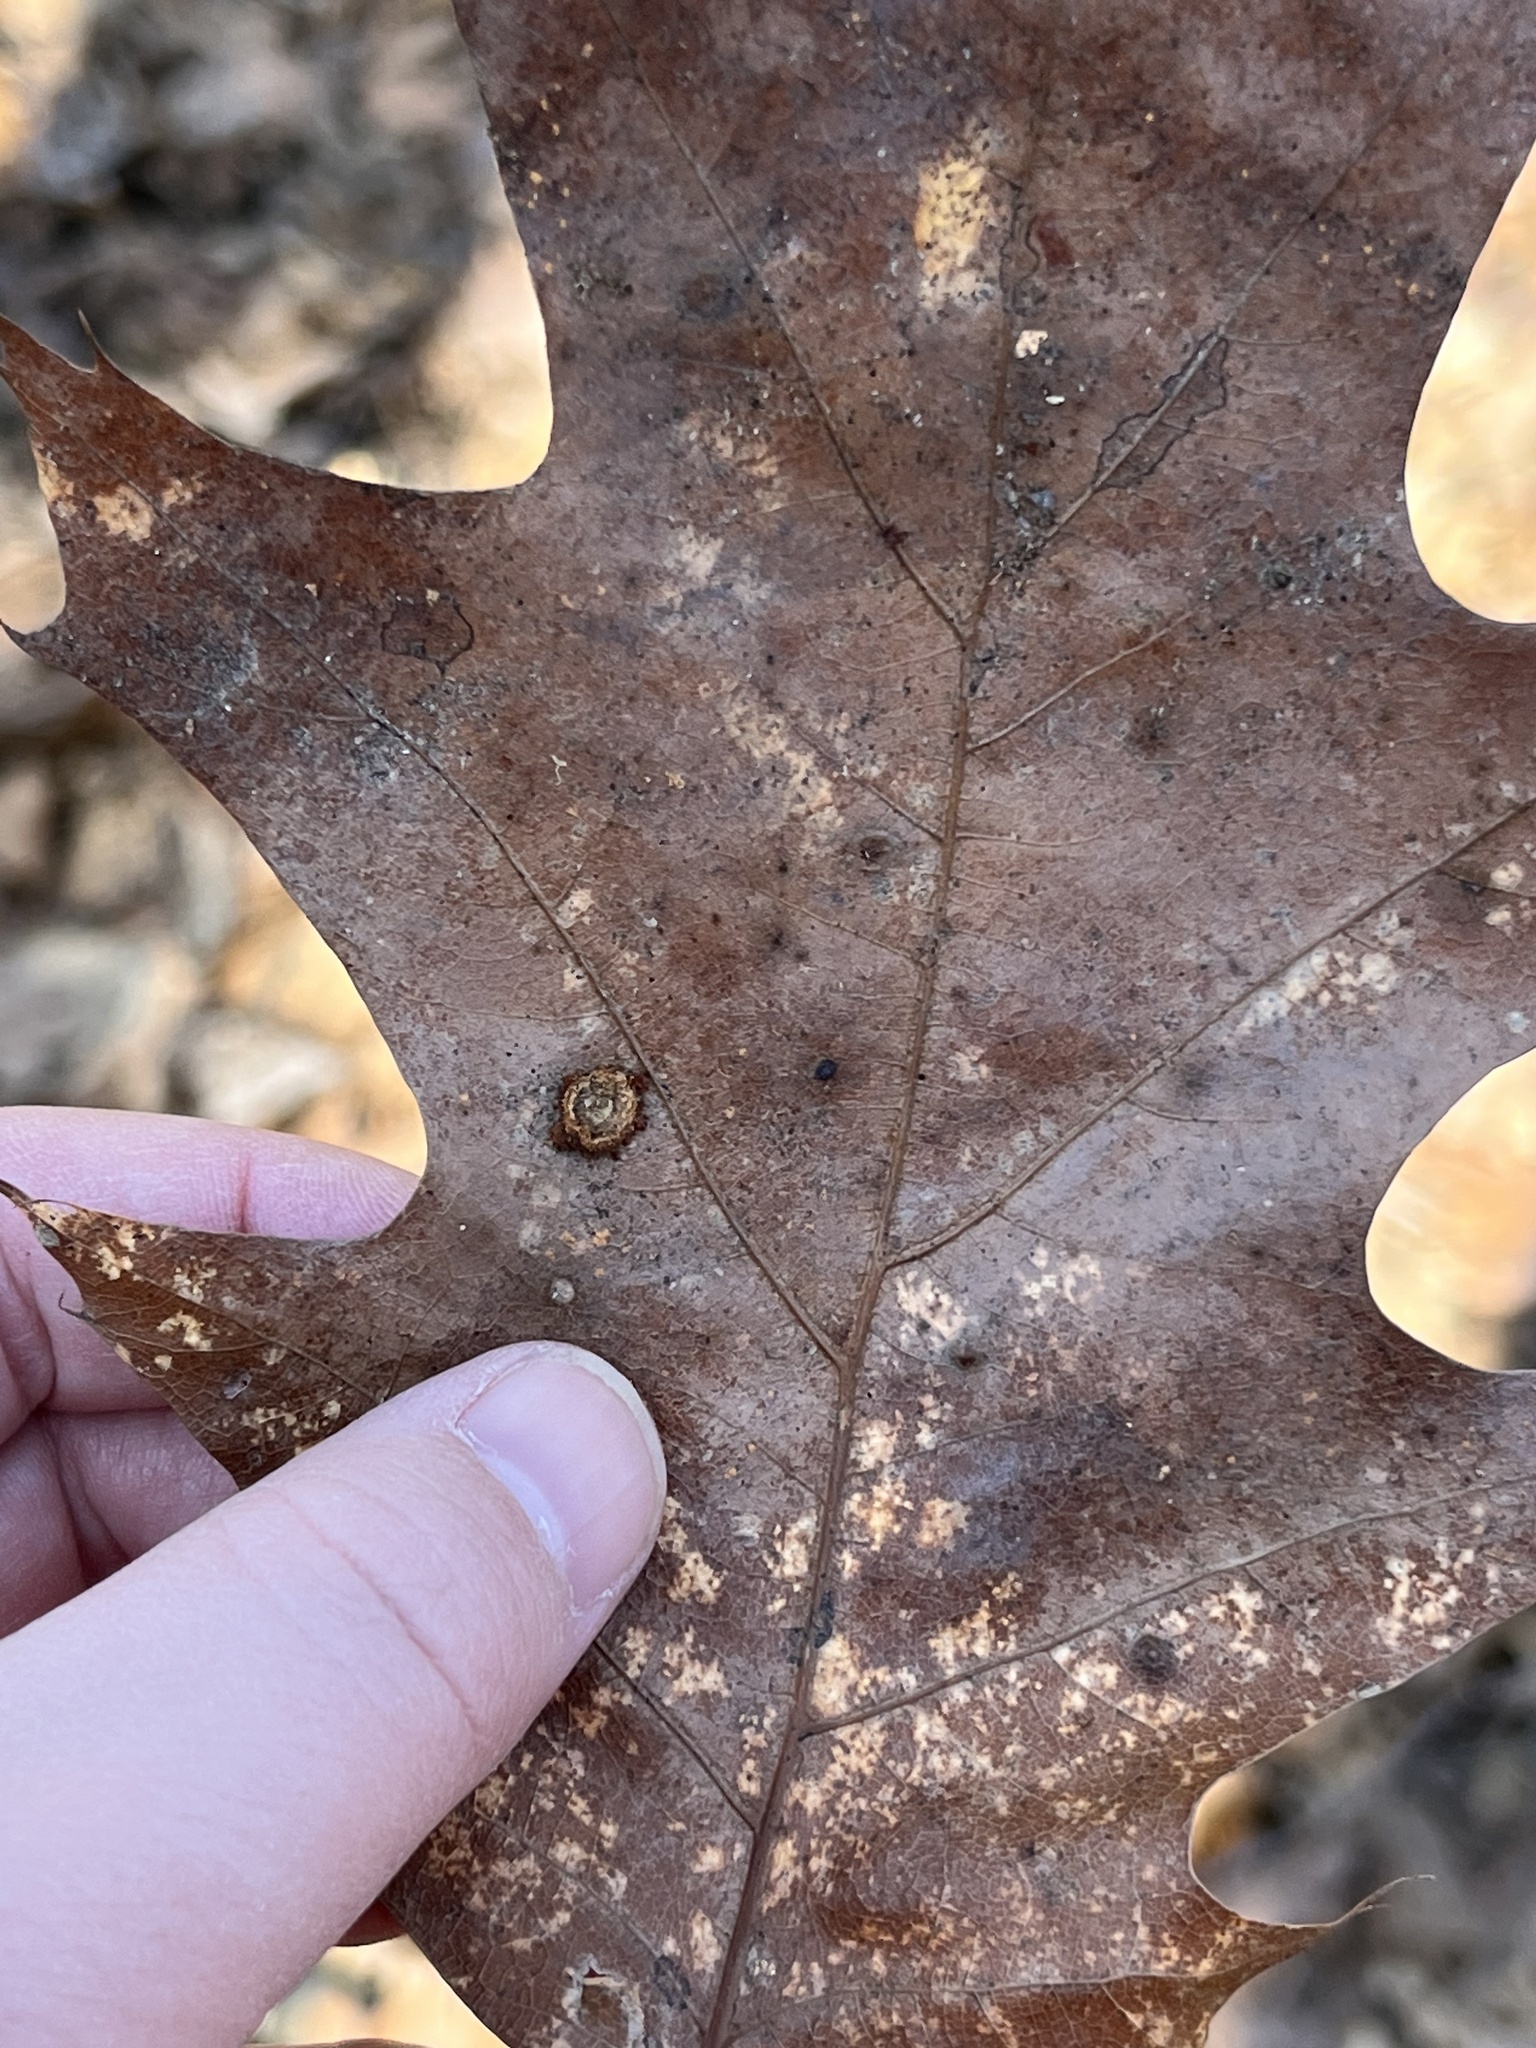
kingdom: Animalia
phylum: Arthropoda
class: Insecta
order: Diptera
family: Cecidomyiidae
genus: Polystepha
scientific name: Polystepha pilulae
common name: Oak leaf gall midge
